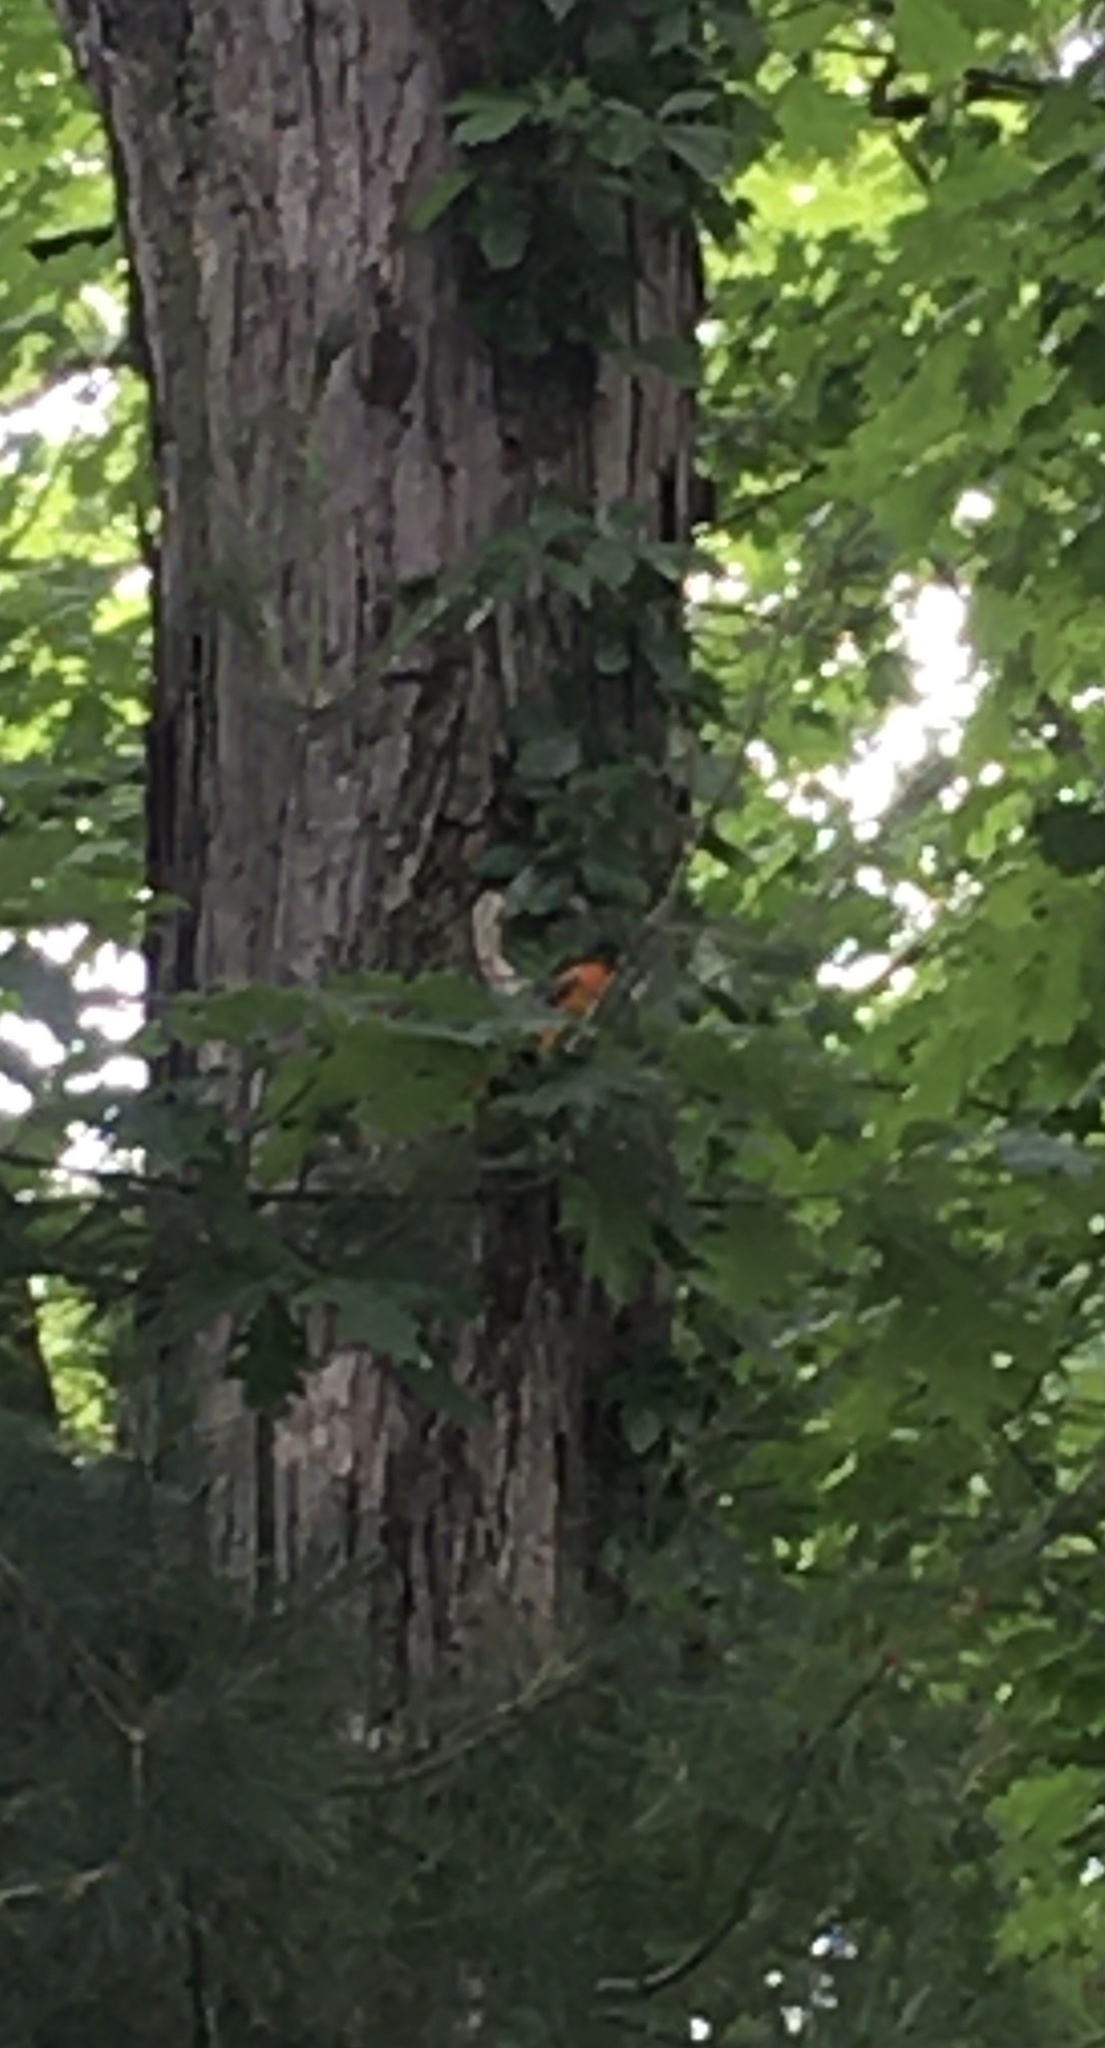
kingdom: Animalia
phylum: Chordata
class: Aves
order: Passeriformes
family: Icteridae
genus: Icterus
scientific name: Icterus galbula
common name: Baltimore oriole
